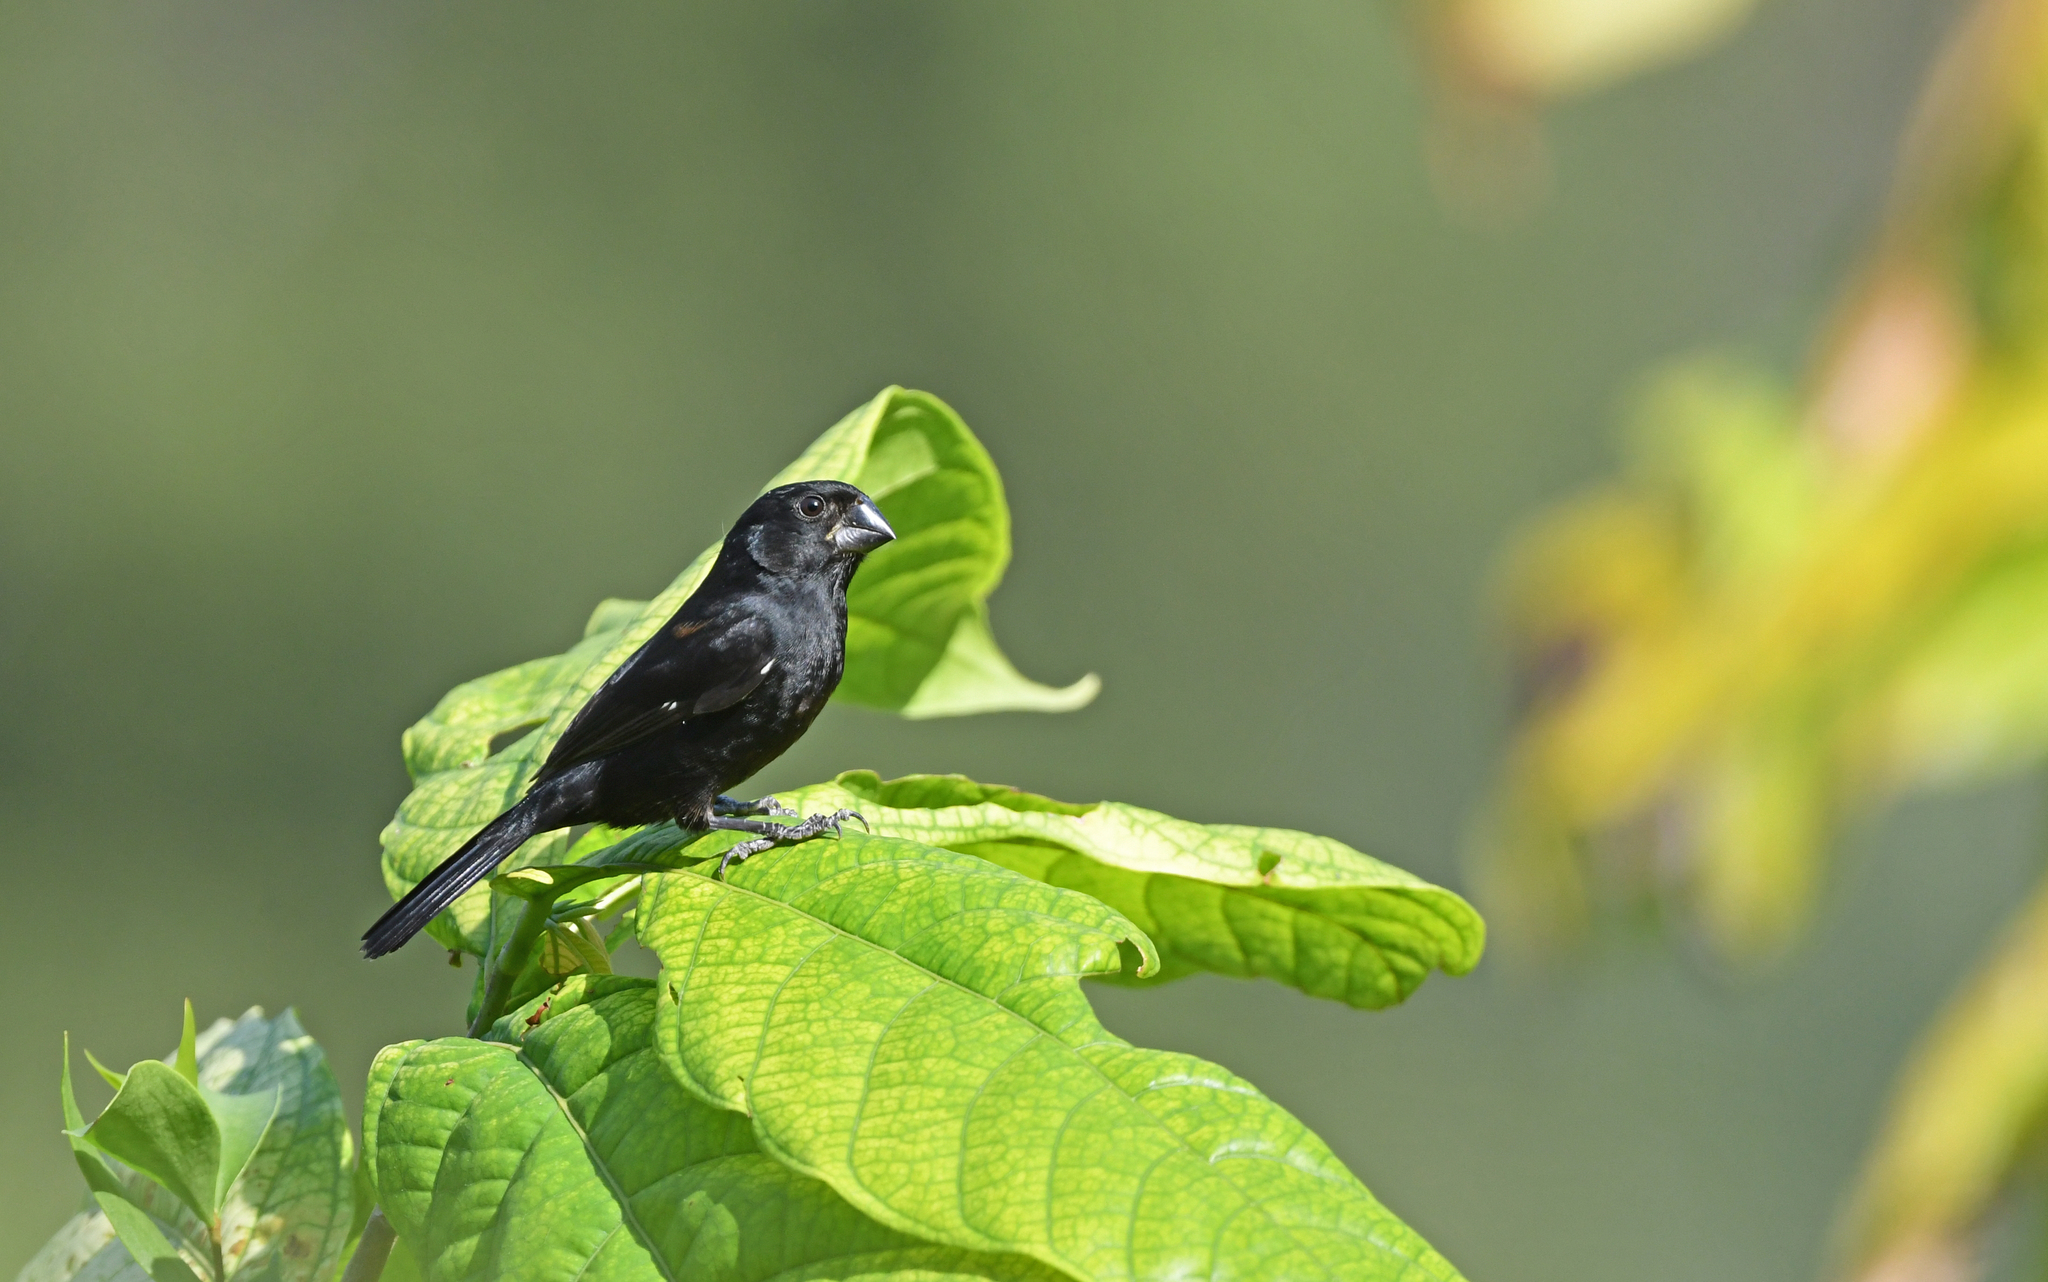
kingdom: Animalia
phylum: Chordata
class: Aves
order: Passeriformes
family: Thraupidae
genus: Sporophila
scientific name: Sporophila funerea
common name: Thick-billed seed-finch
